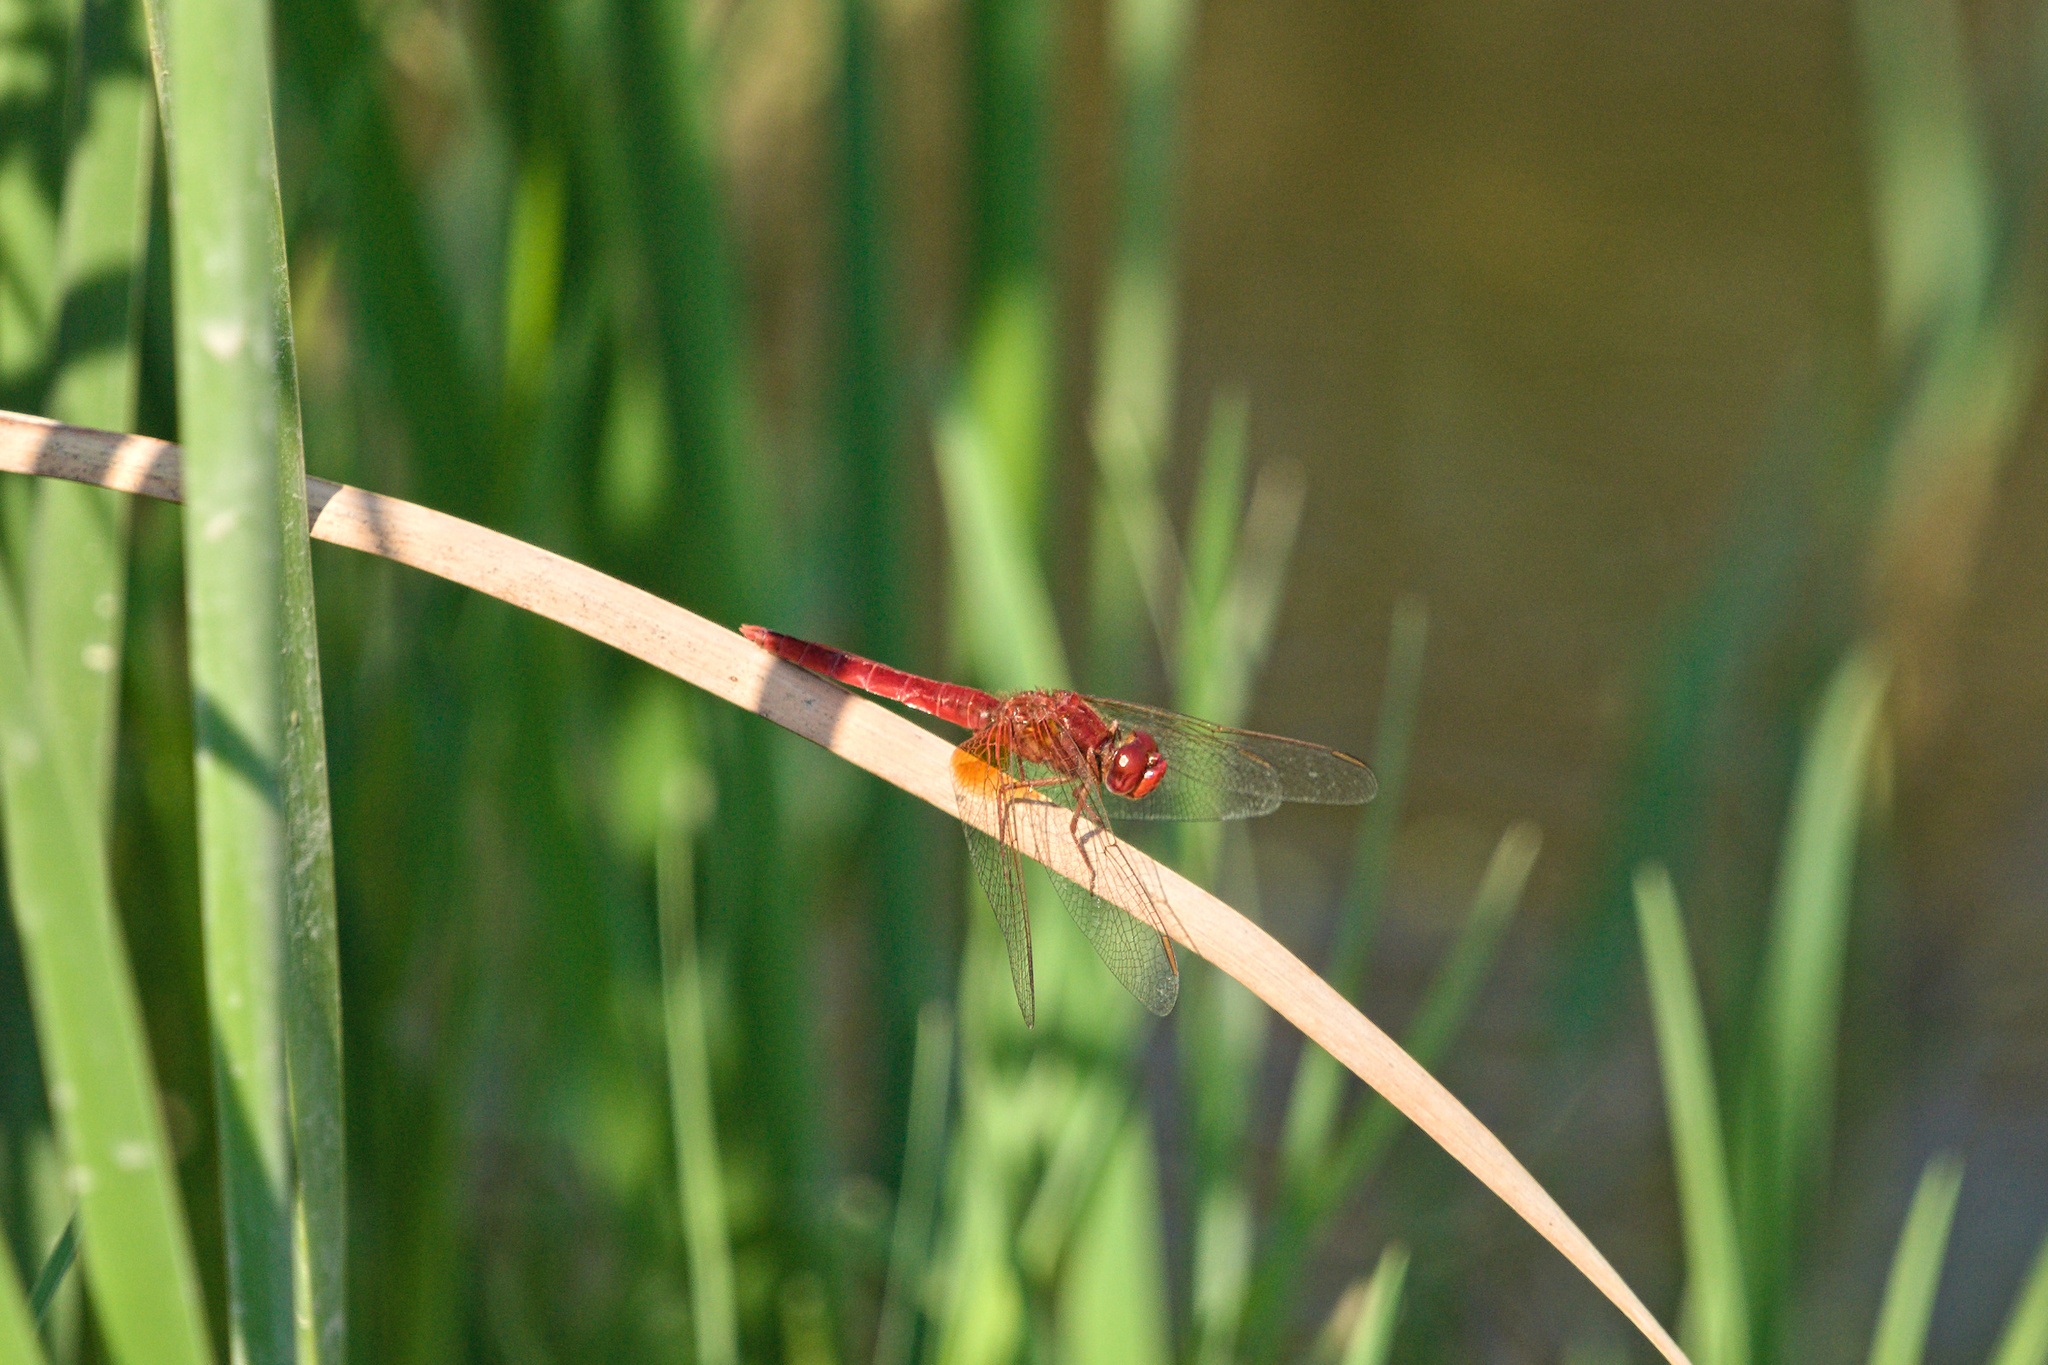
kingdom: Animalia
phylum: Arthropoda
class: Insecta
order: Odonata
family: Libellulidae
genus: Crocothemis
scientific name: Crocothemis erythraea
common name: Scarlet dragonfly
